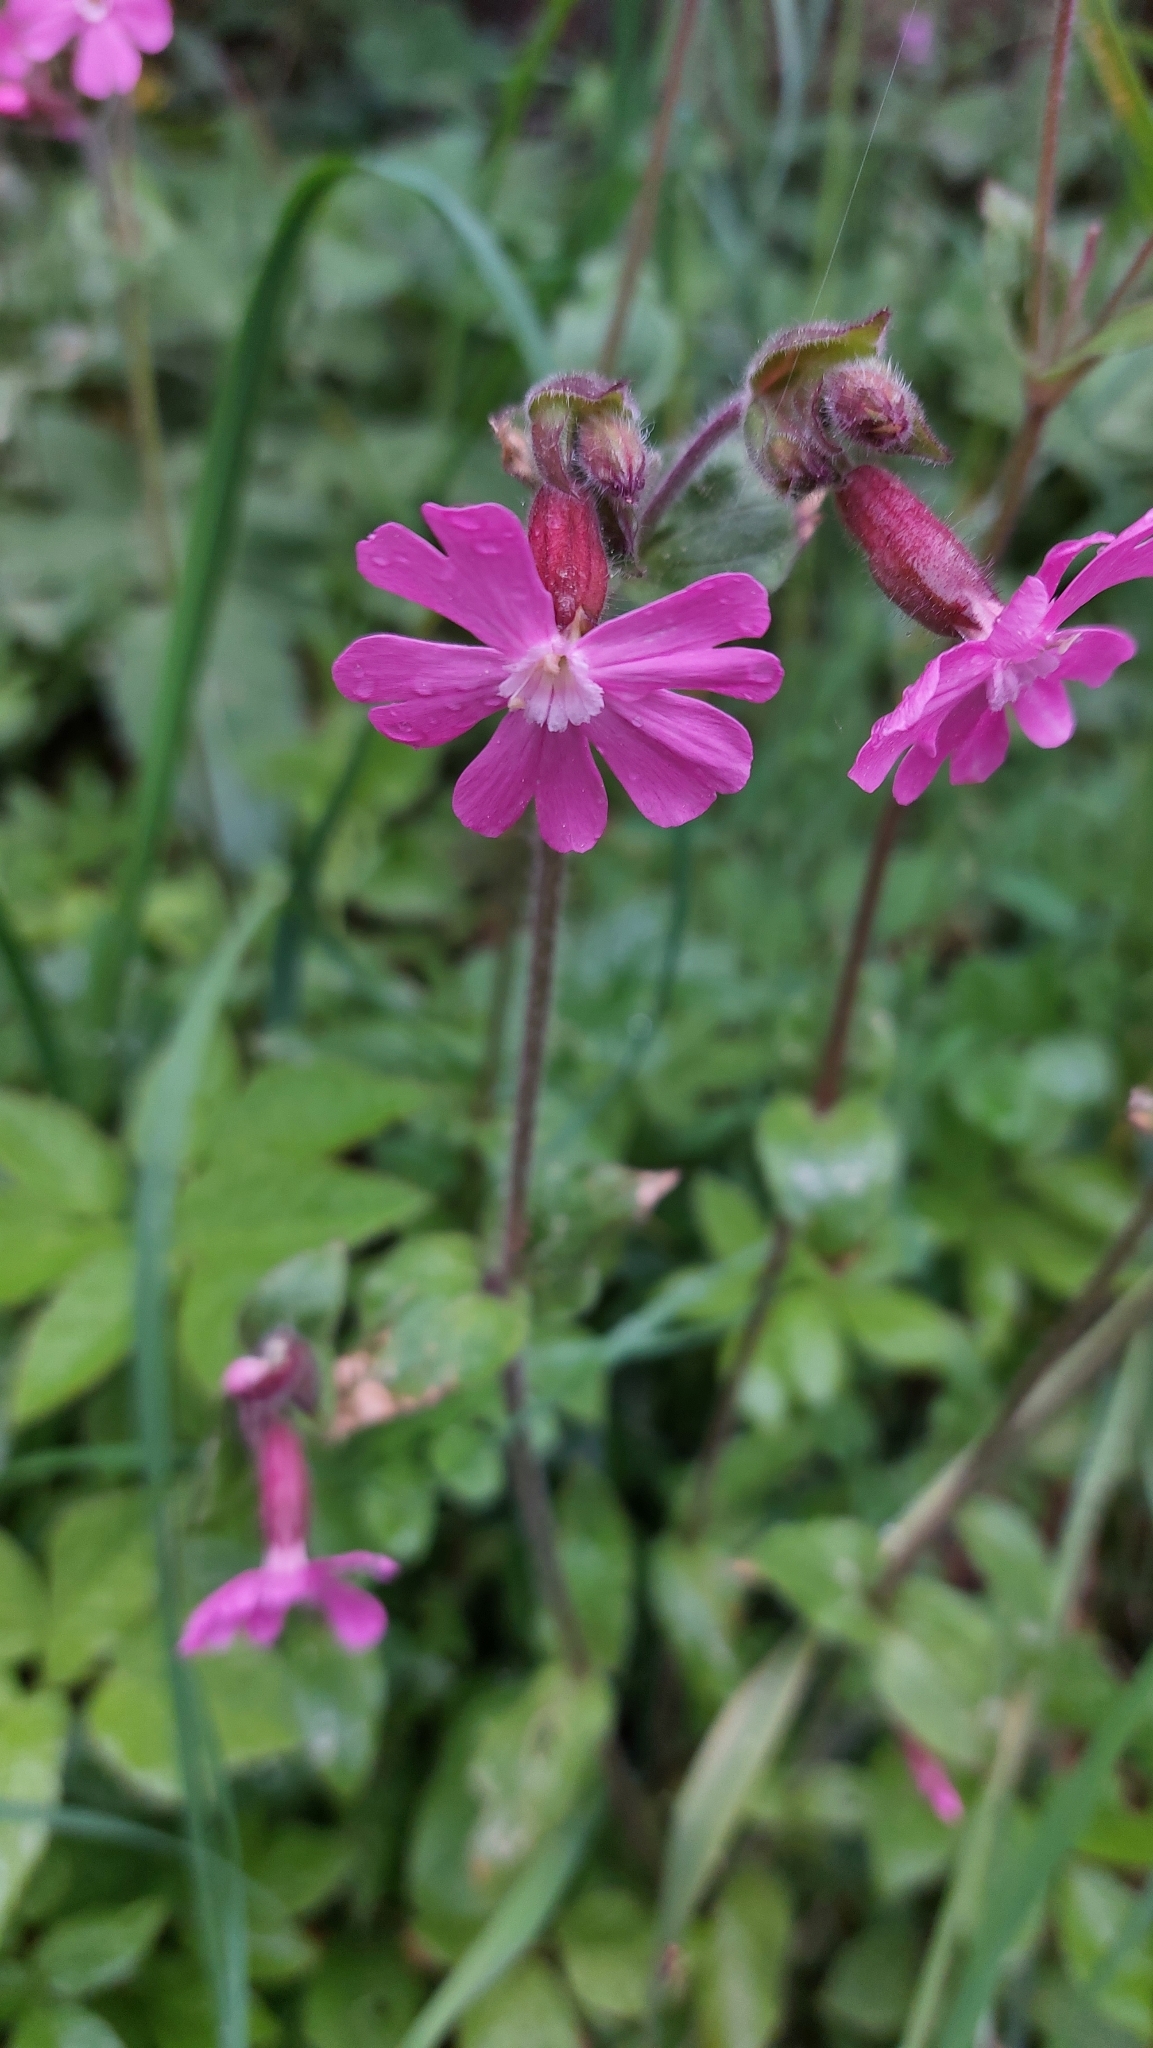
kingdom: Plantae
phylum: Tracheophyta
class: Magnoliopsida
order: Caryophyllales
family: Caryophyllaceae
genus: Silene
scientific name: Silene dioica
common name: Red campion
